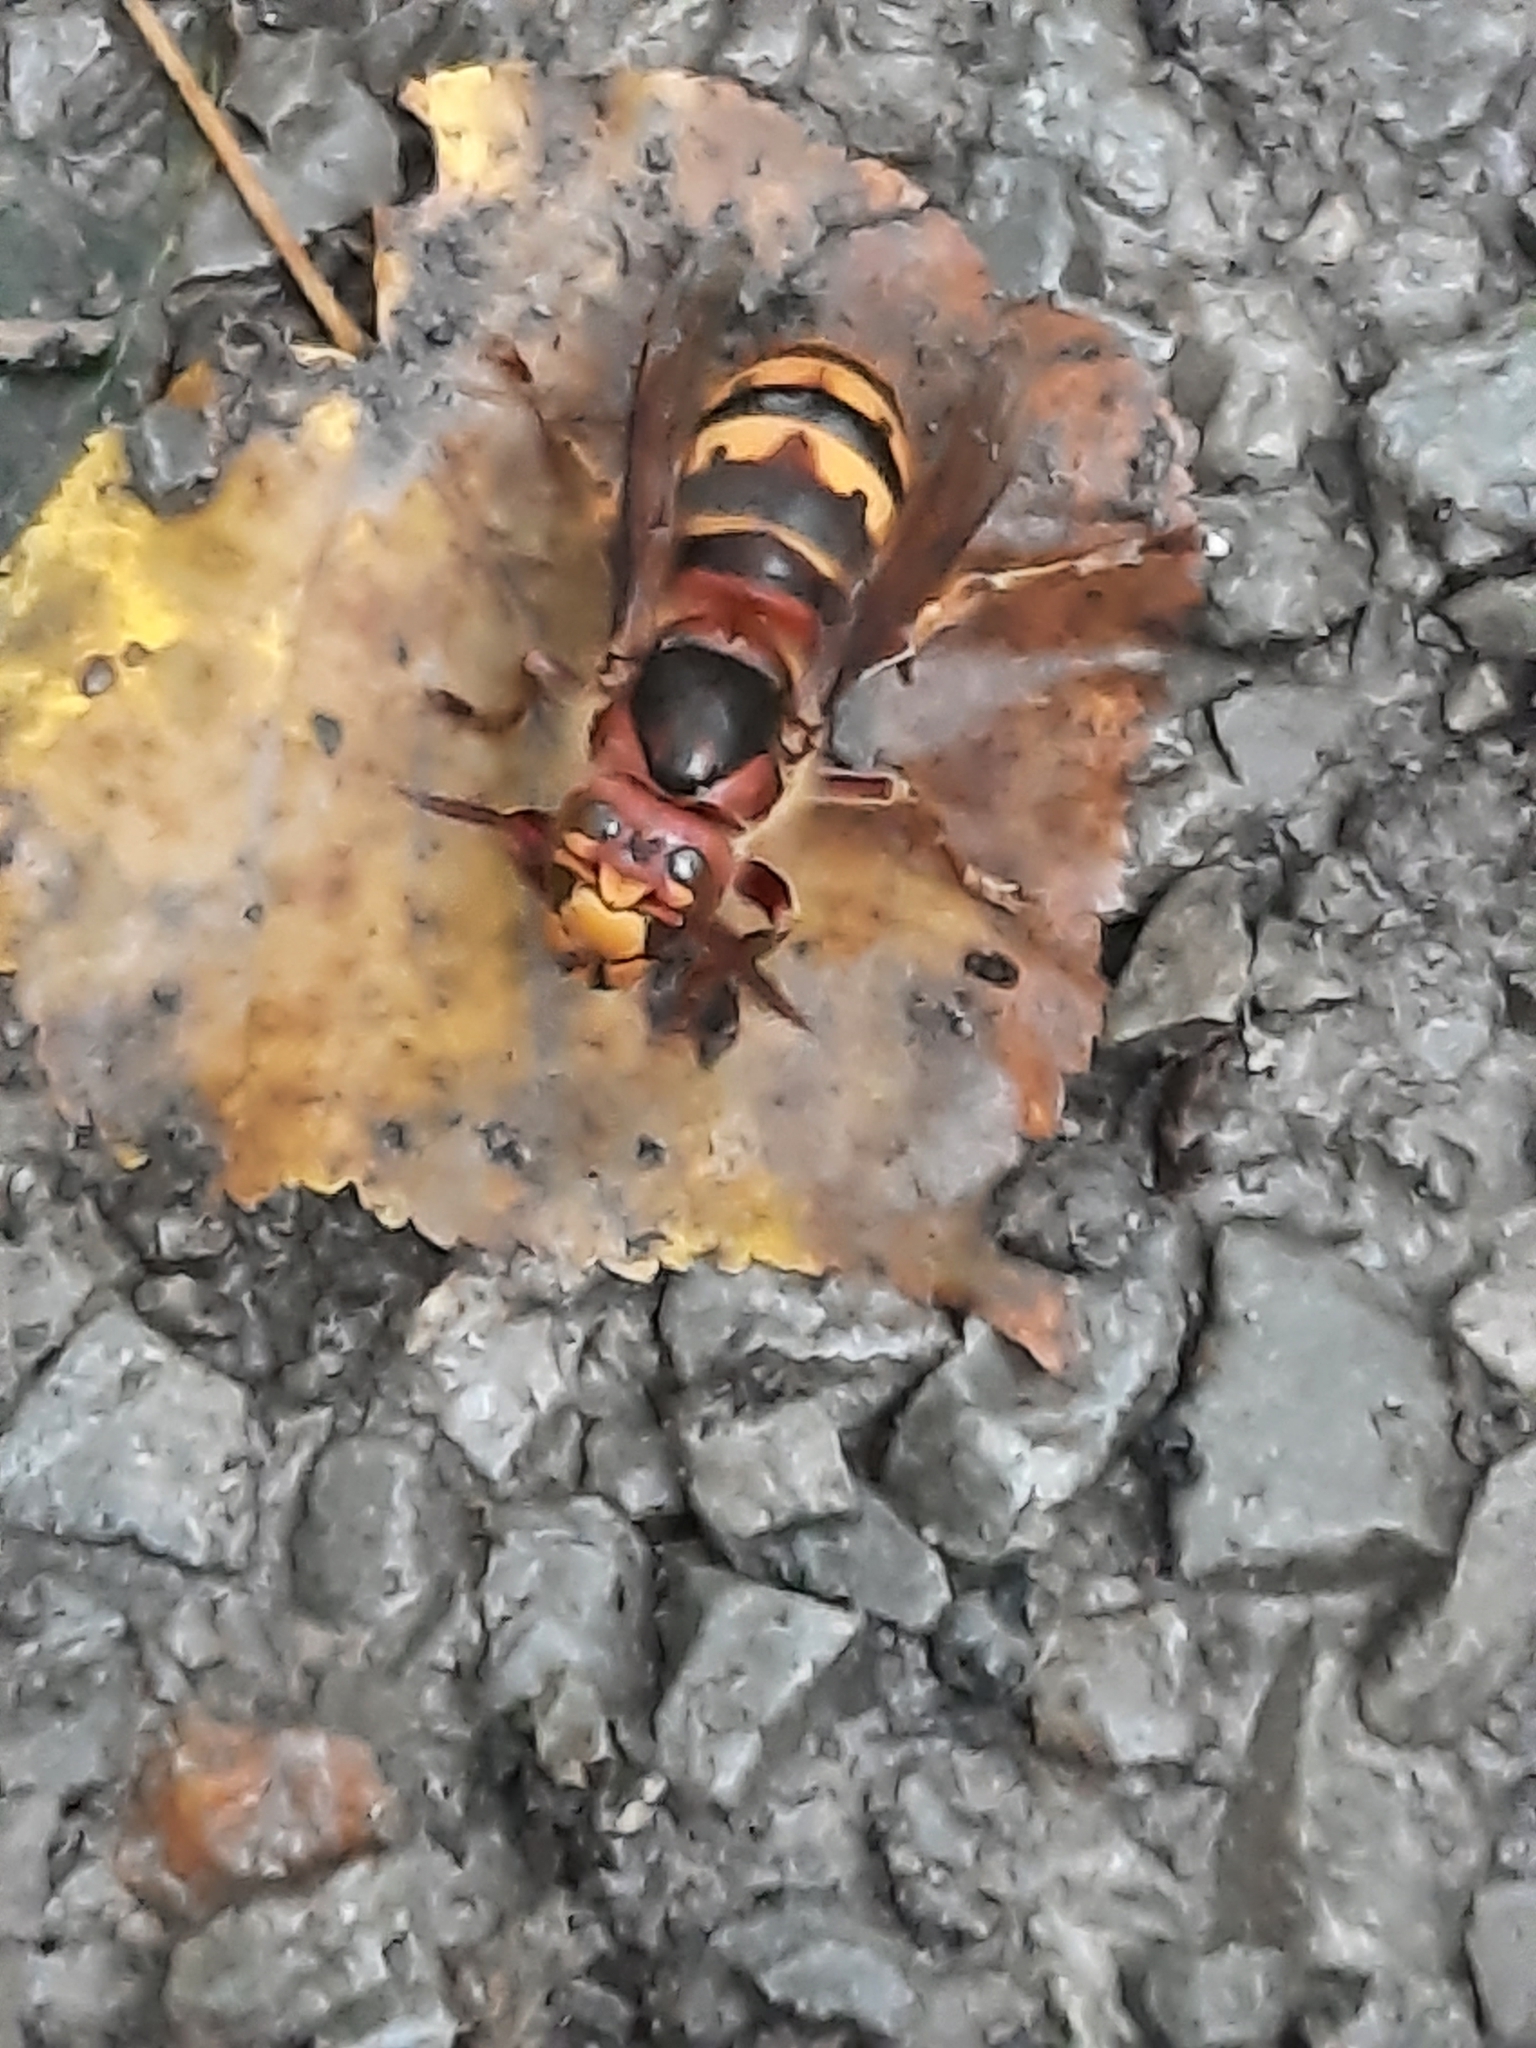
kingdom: Animalia
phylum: Arthropoda
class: Insecta
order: Hymenoptera
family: Vespidae
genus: Vespa
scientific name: Vespa crabro
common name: Hornet
